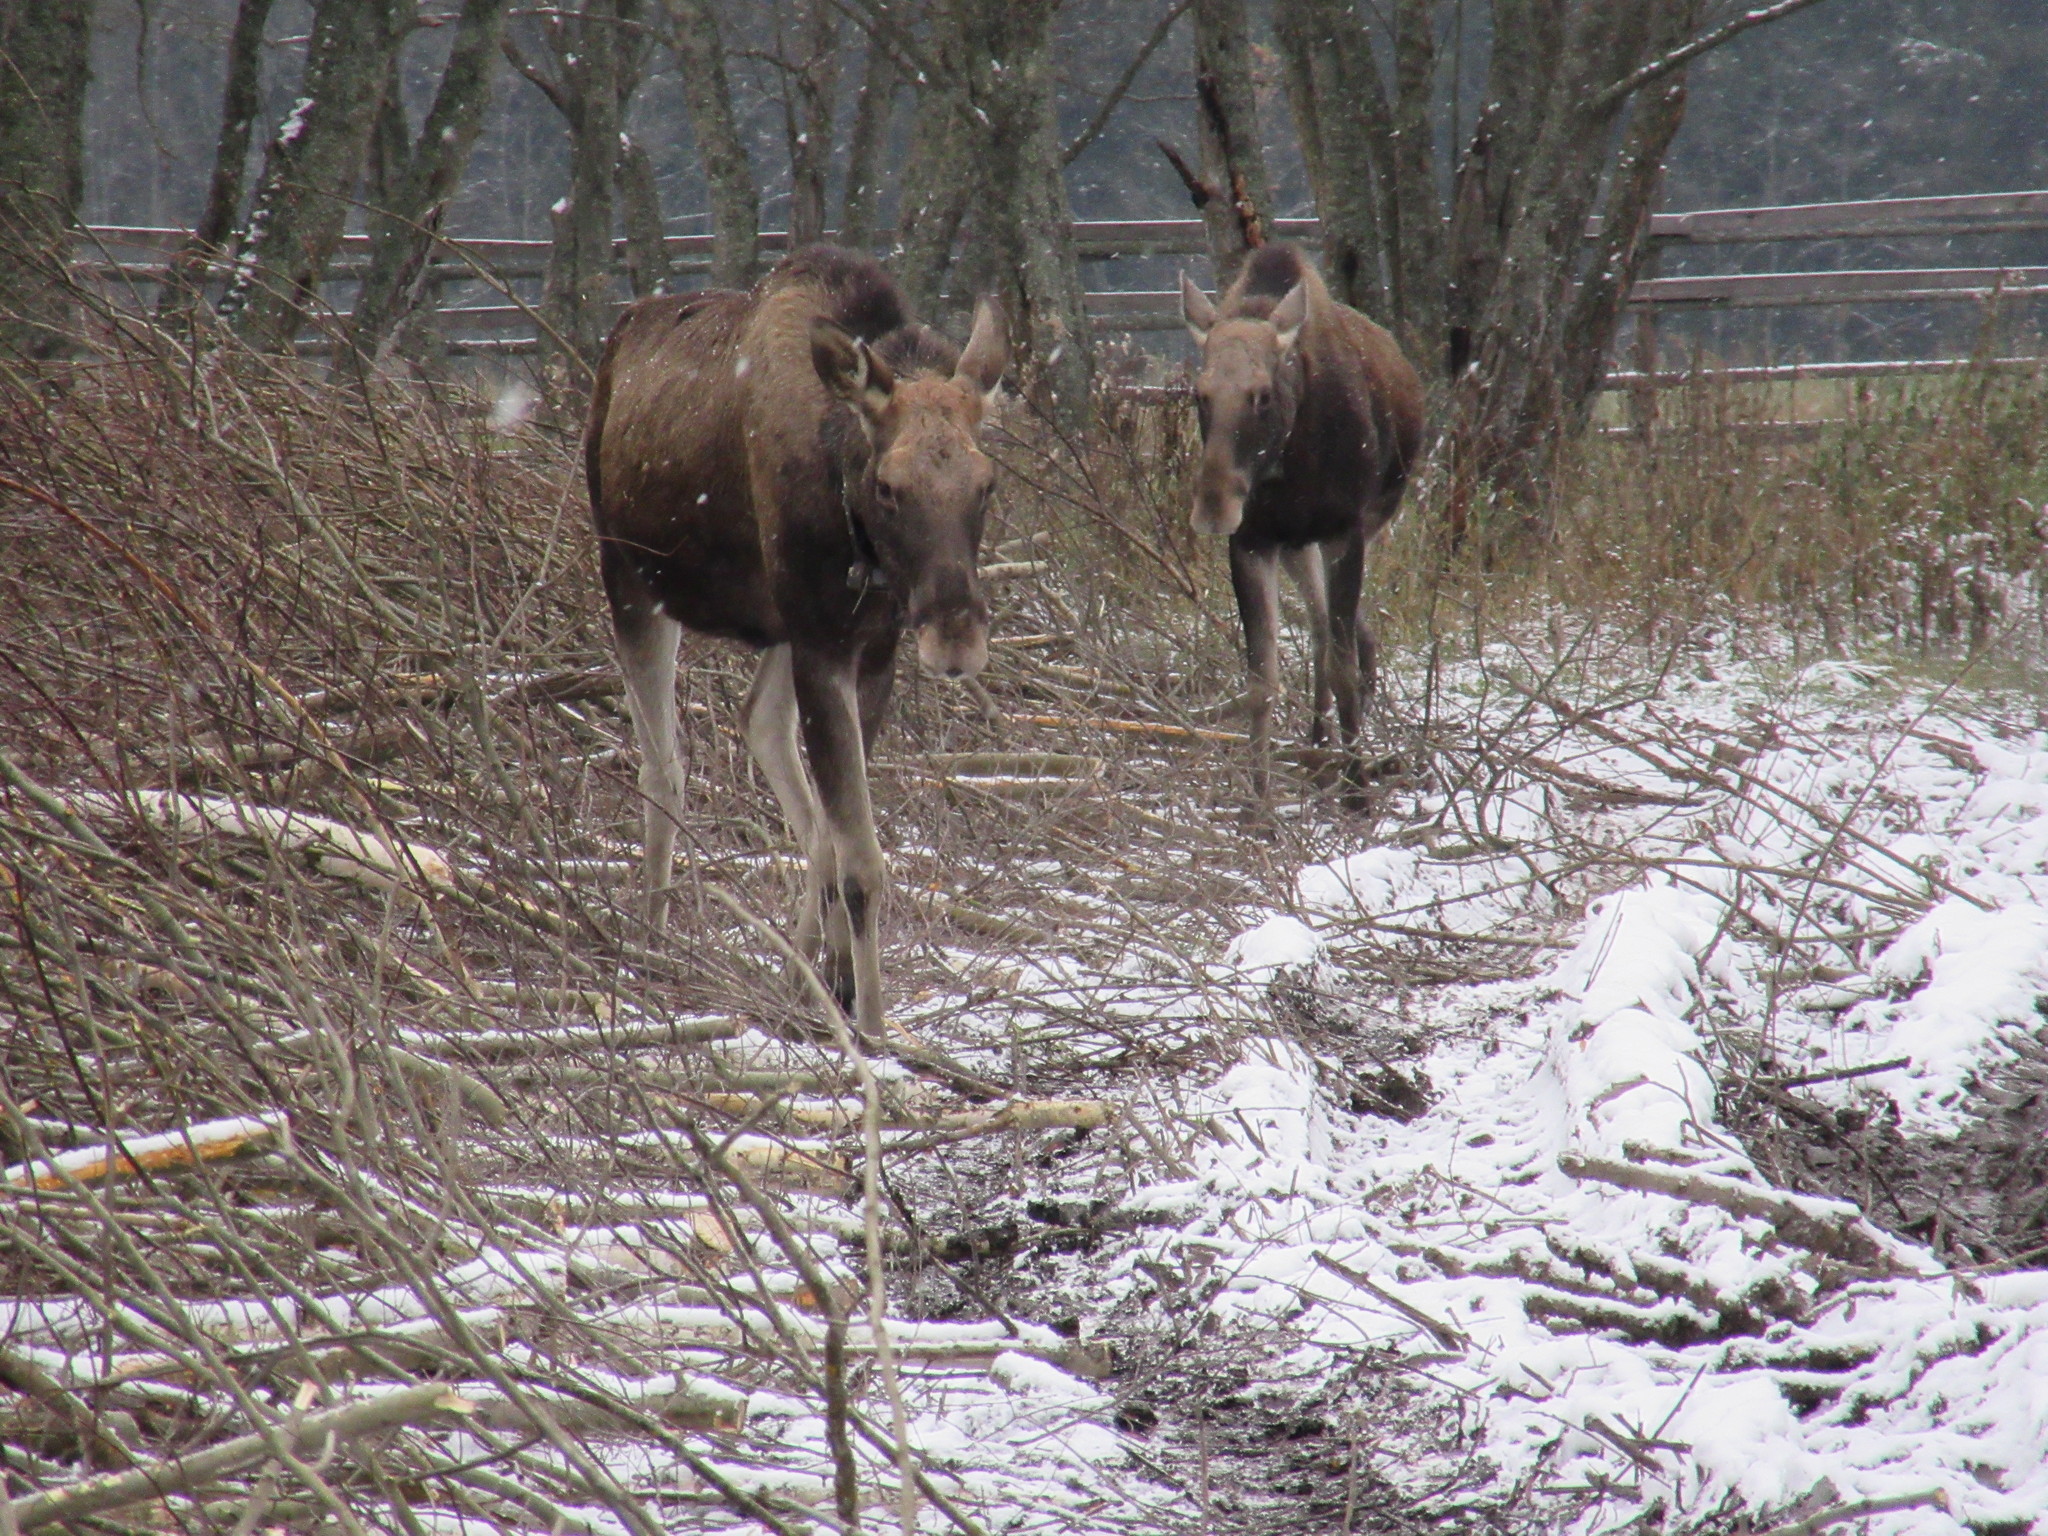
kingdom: Animalia
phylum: Chordata
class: Mammalia
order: Artiodactyla
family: Cervidae
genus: Alces
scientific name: Alces alces
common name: Moose
